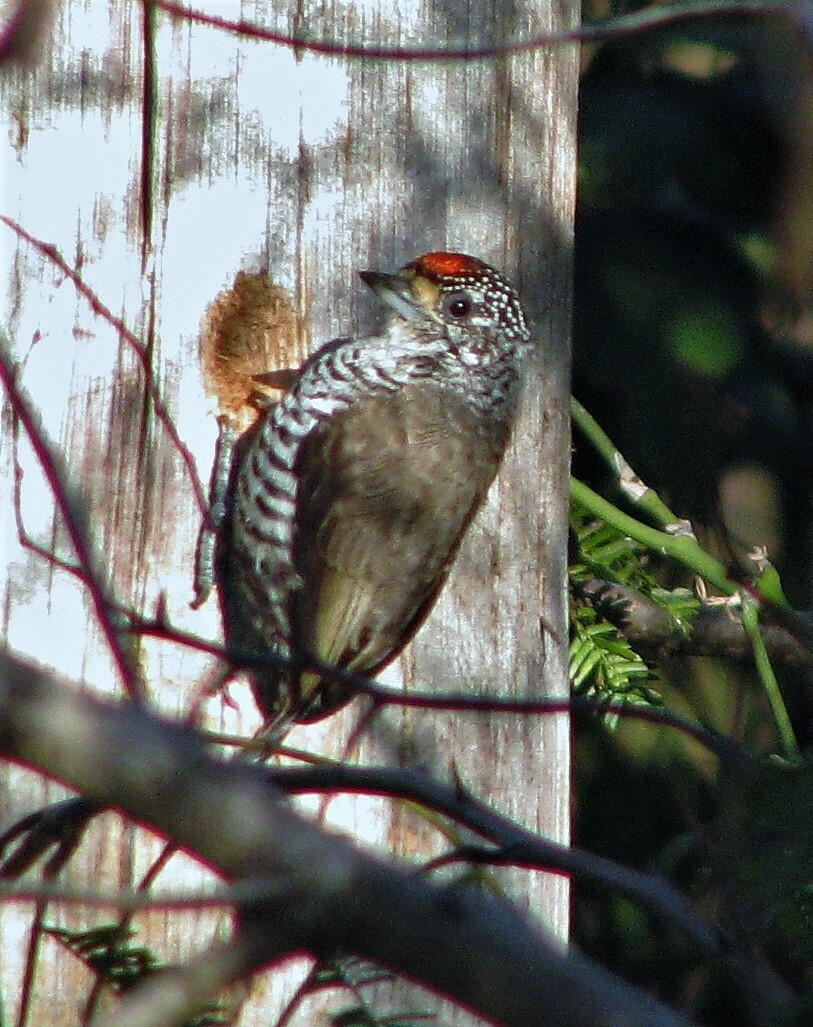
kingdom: Animalia
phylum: Chordata
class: Aves
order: Piciformes
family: Picidae
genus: Picumnus
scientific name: Picumnus cirratus
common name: White-barred piculet
